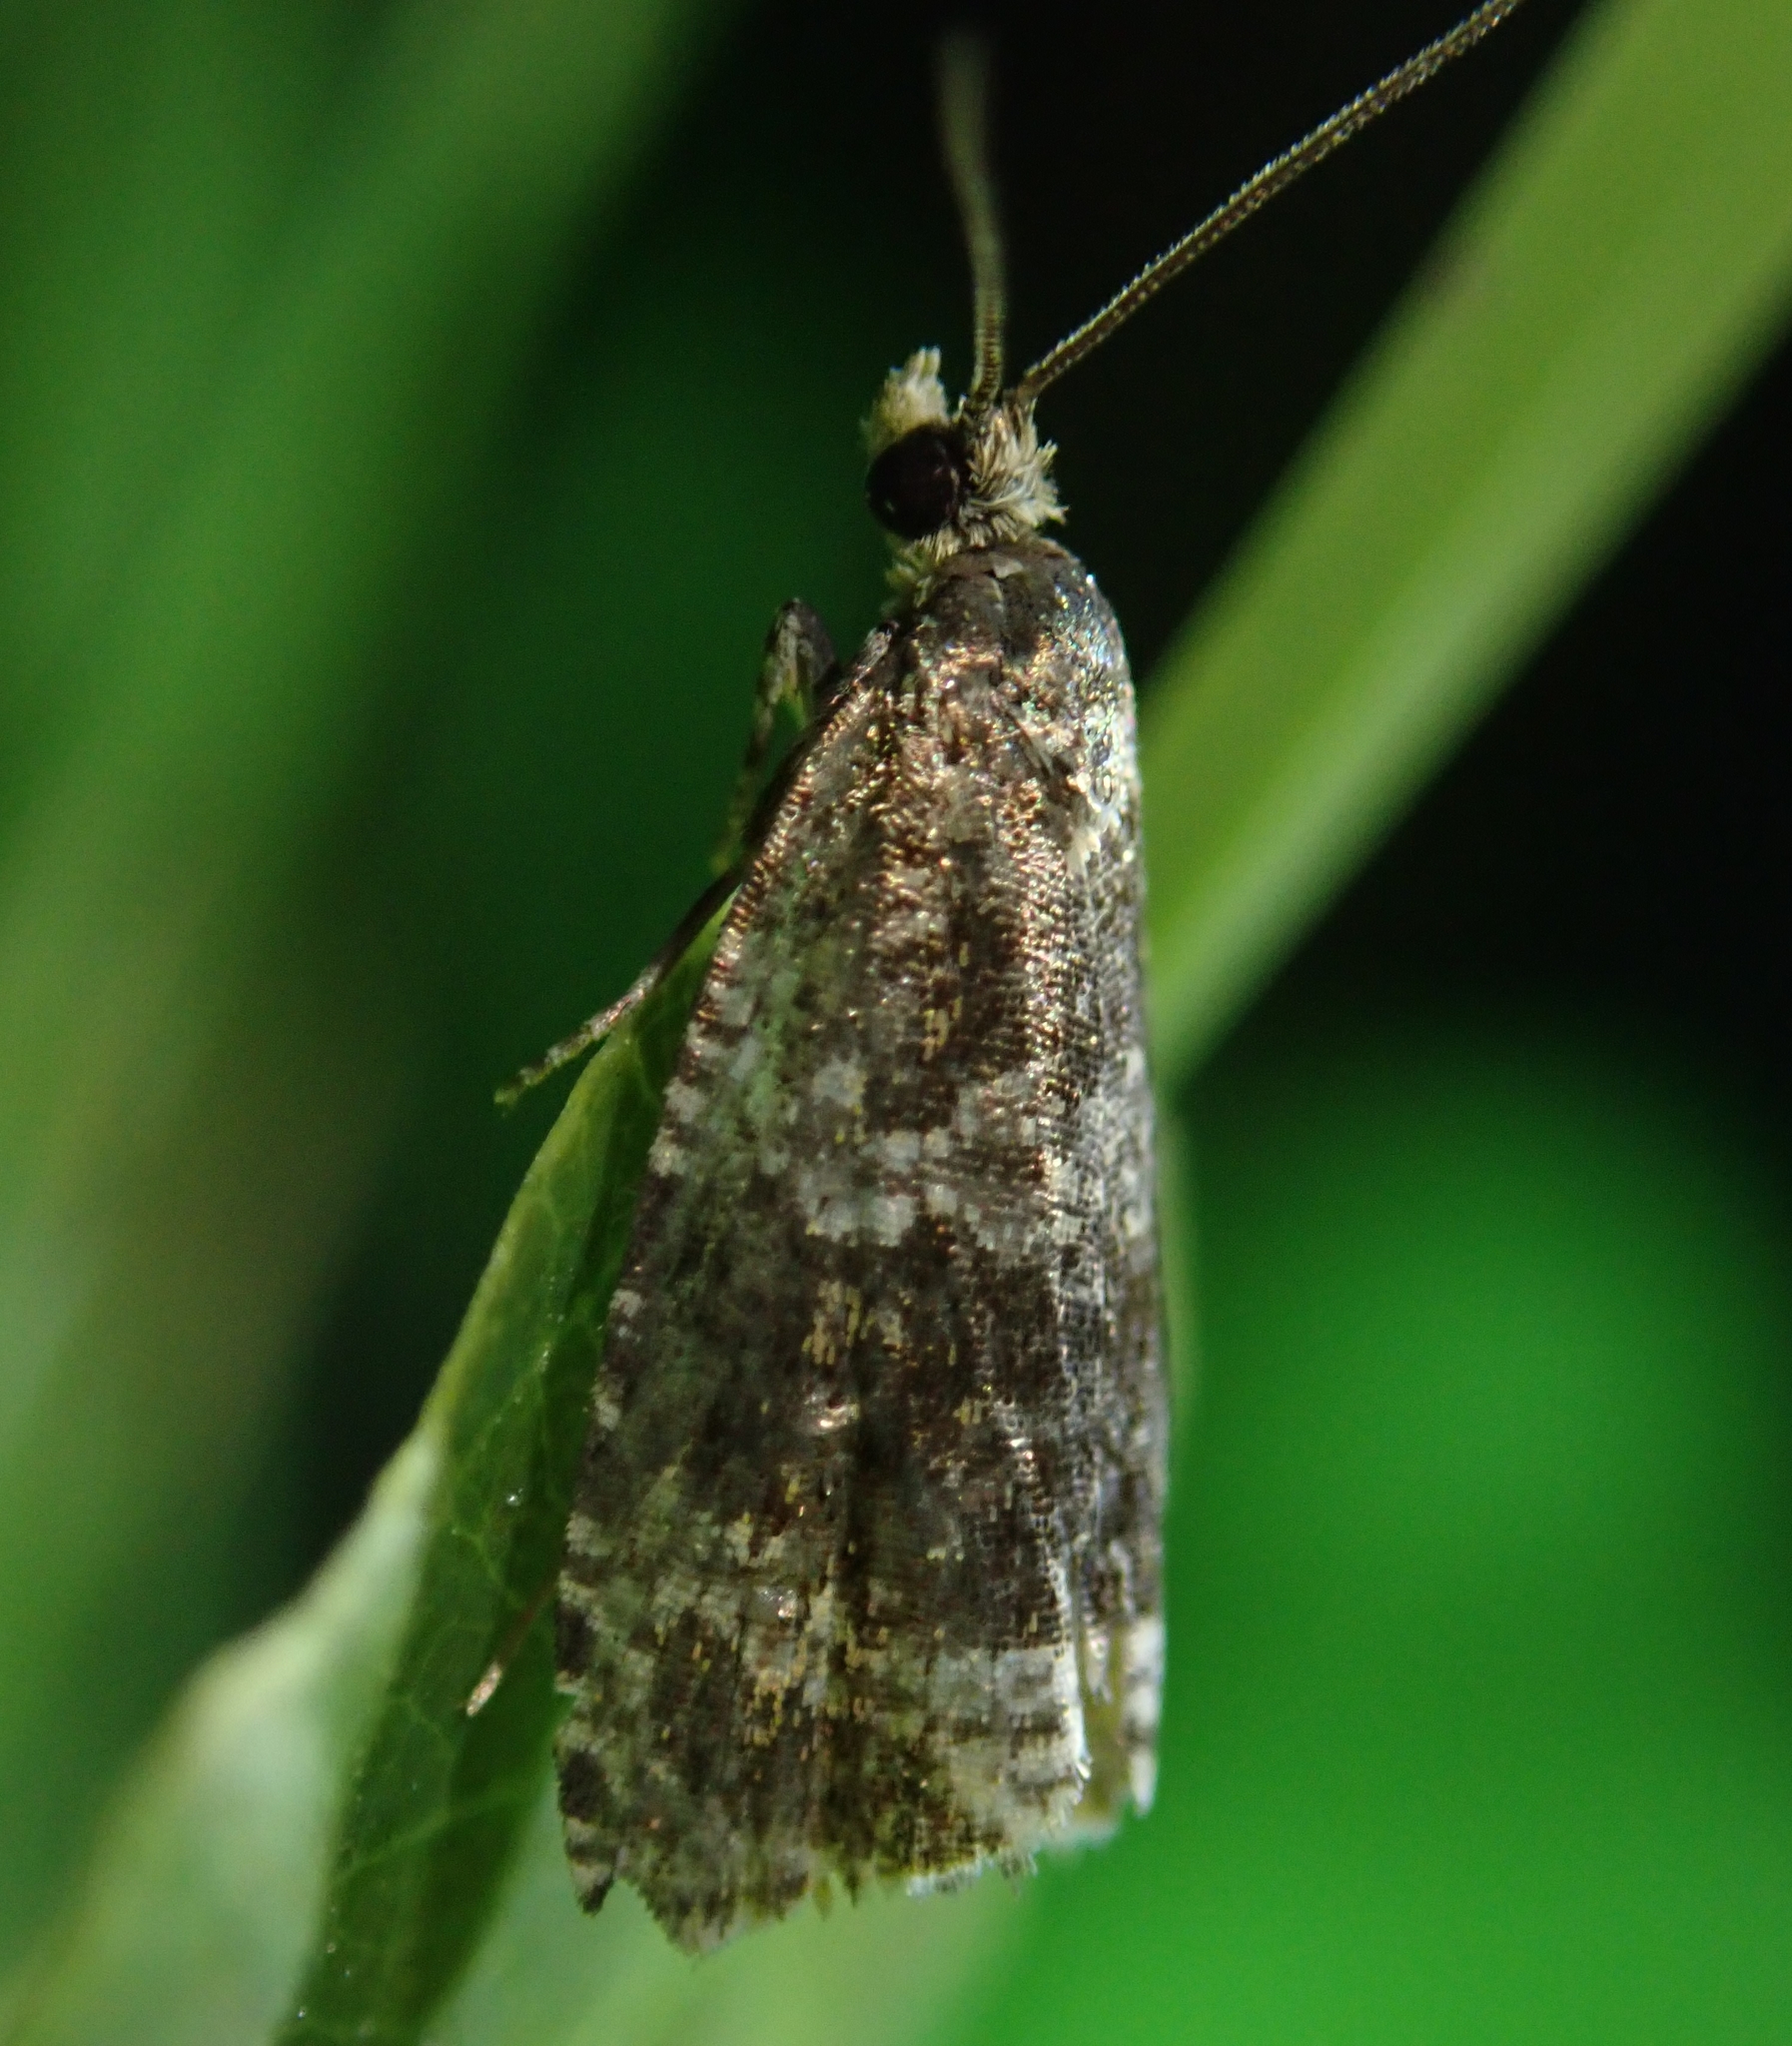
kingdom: Animalia
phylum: Arthropoda
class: Insecta
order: Lepidoptera
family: Tortricidae
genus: Syricoris
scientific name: Syricoris lacunana
